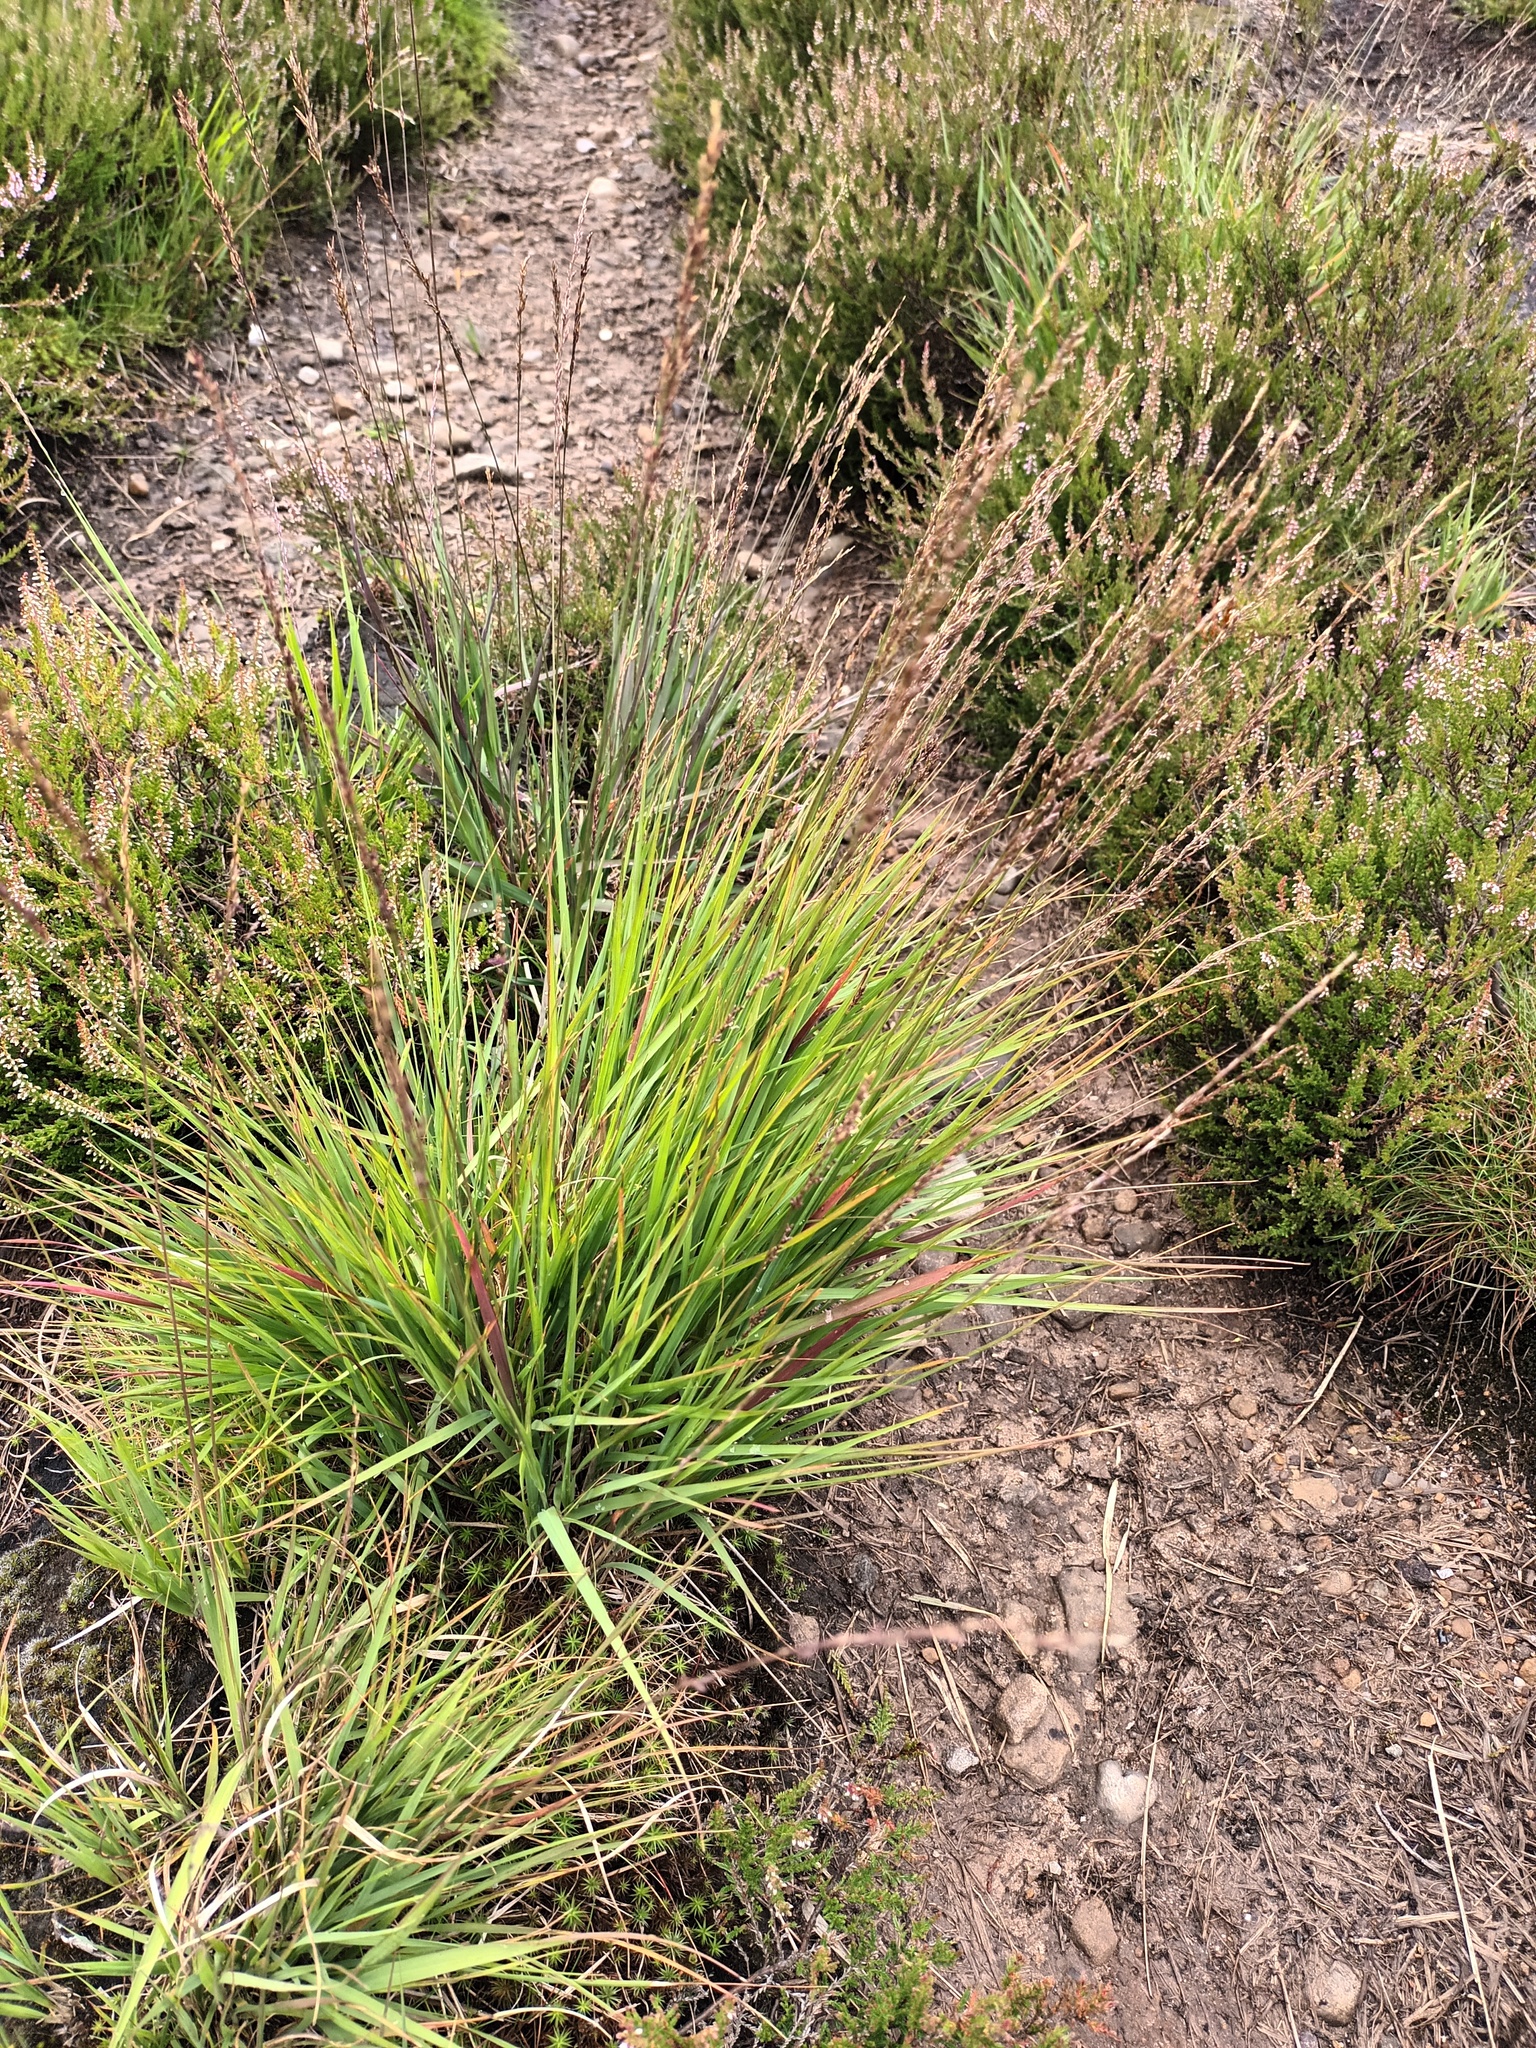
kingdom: Plantae
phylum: Tracheophyta
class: Liliopsida
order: Poales
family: Poaceae
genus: Molinia
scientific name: Molinia caerulea
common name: Purple moor-grass
